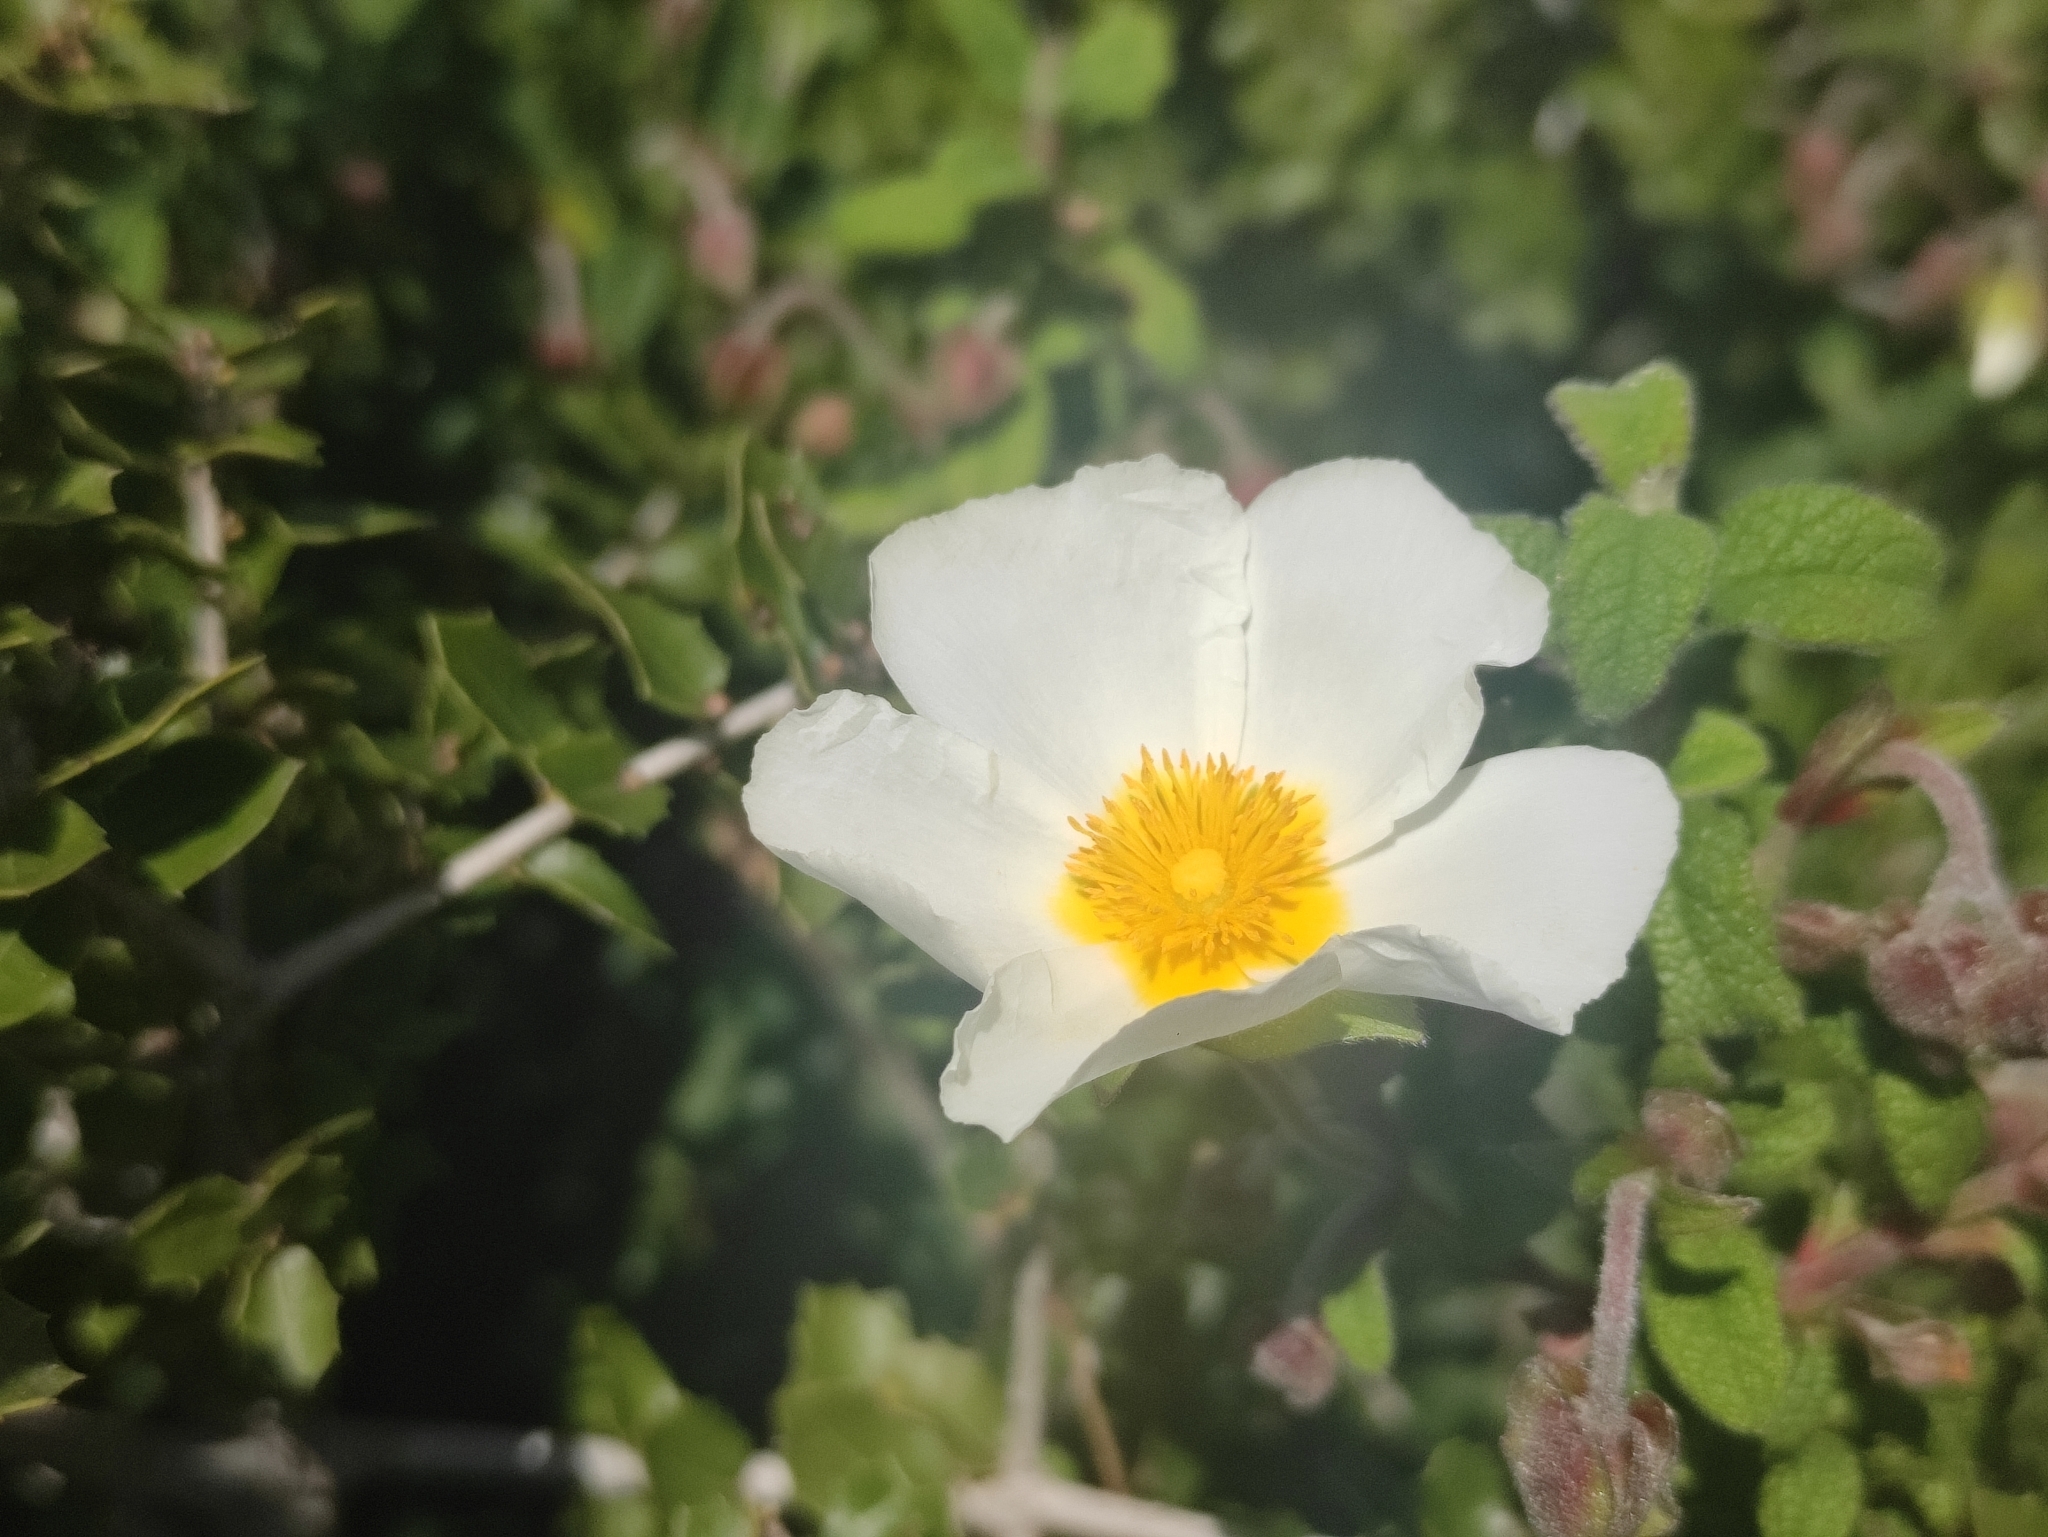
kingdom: Plantae
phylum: Tracheophyta
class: Magnoliopsida
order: Malvales
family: Cistaceae
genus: Cistus
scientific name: Cistus salviifolius
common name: Salvia cistus
